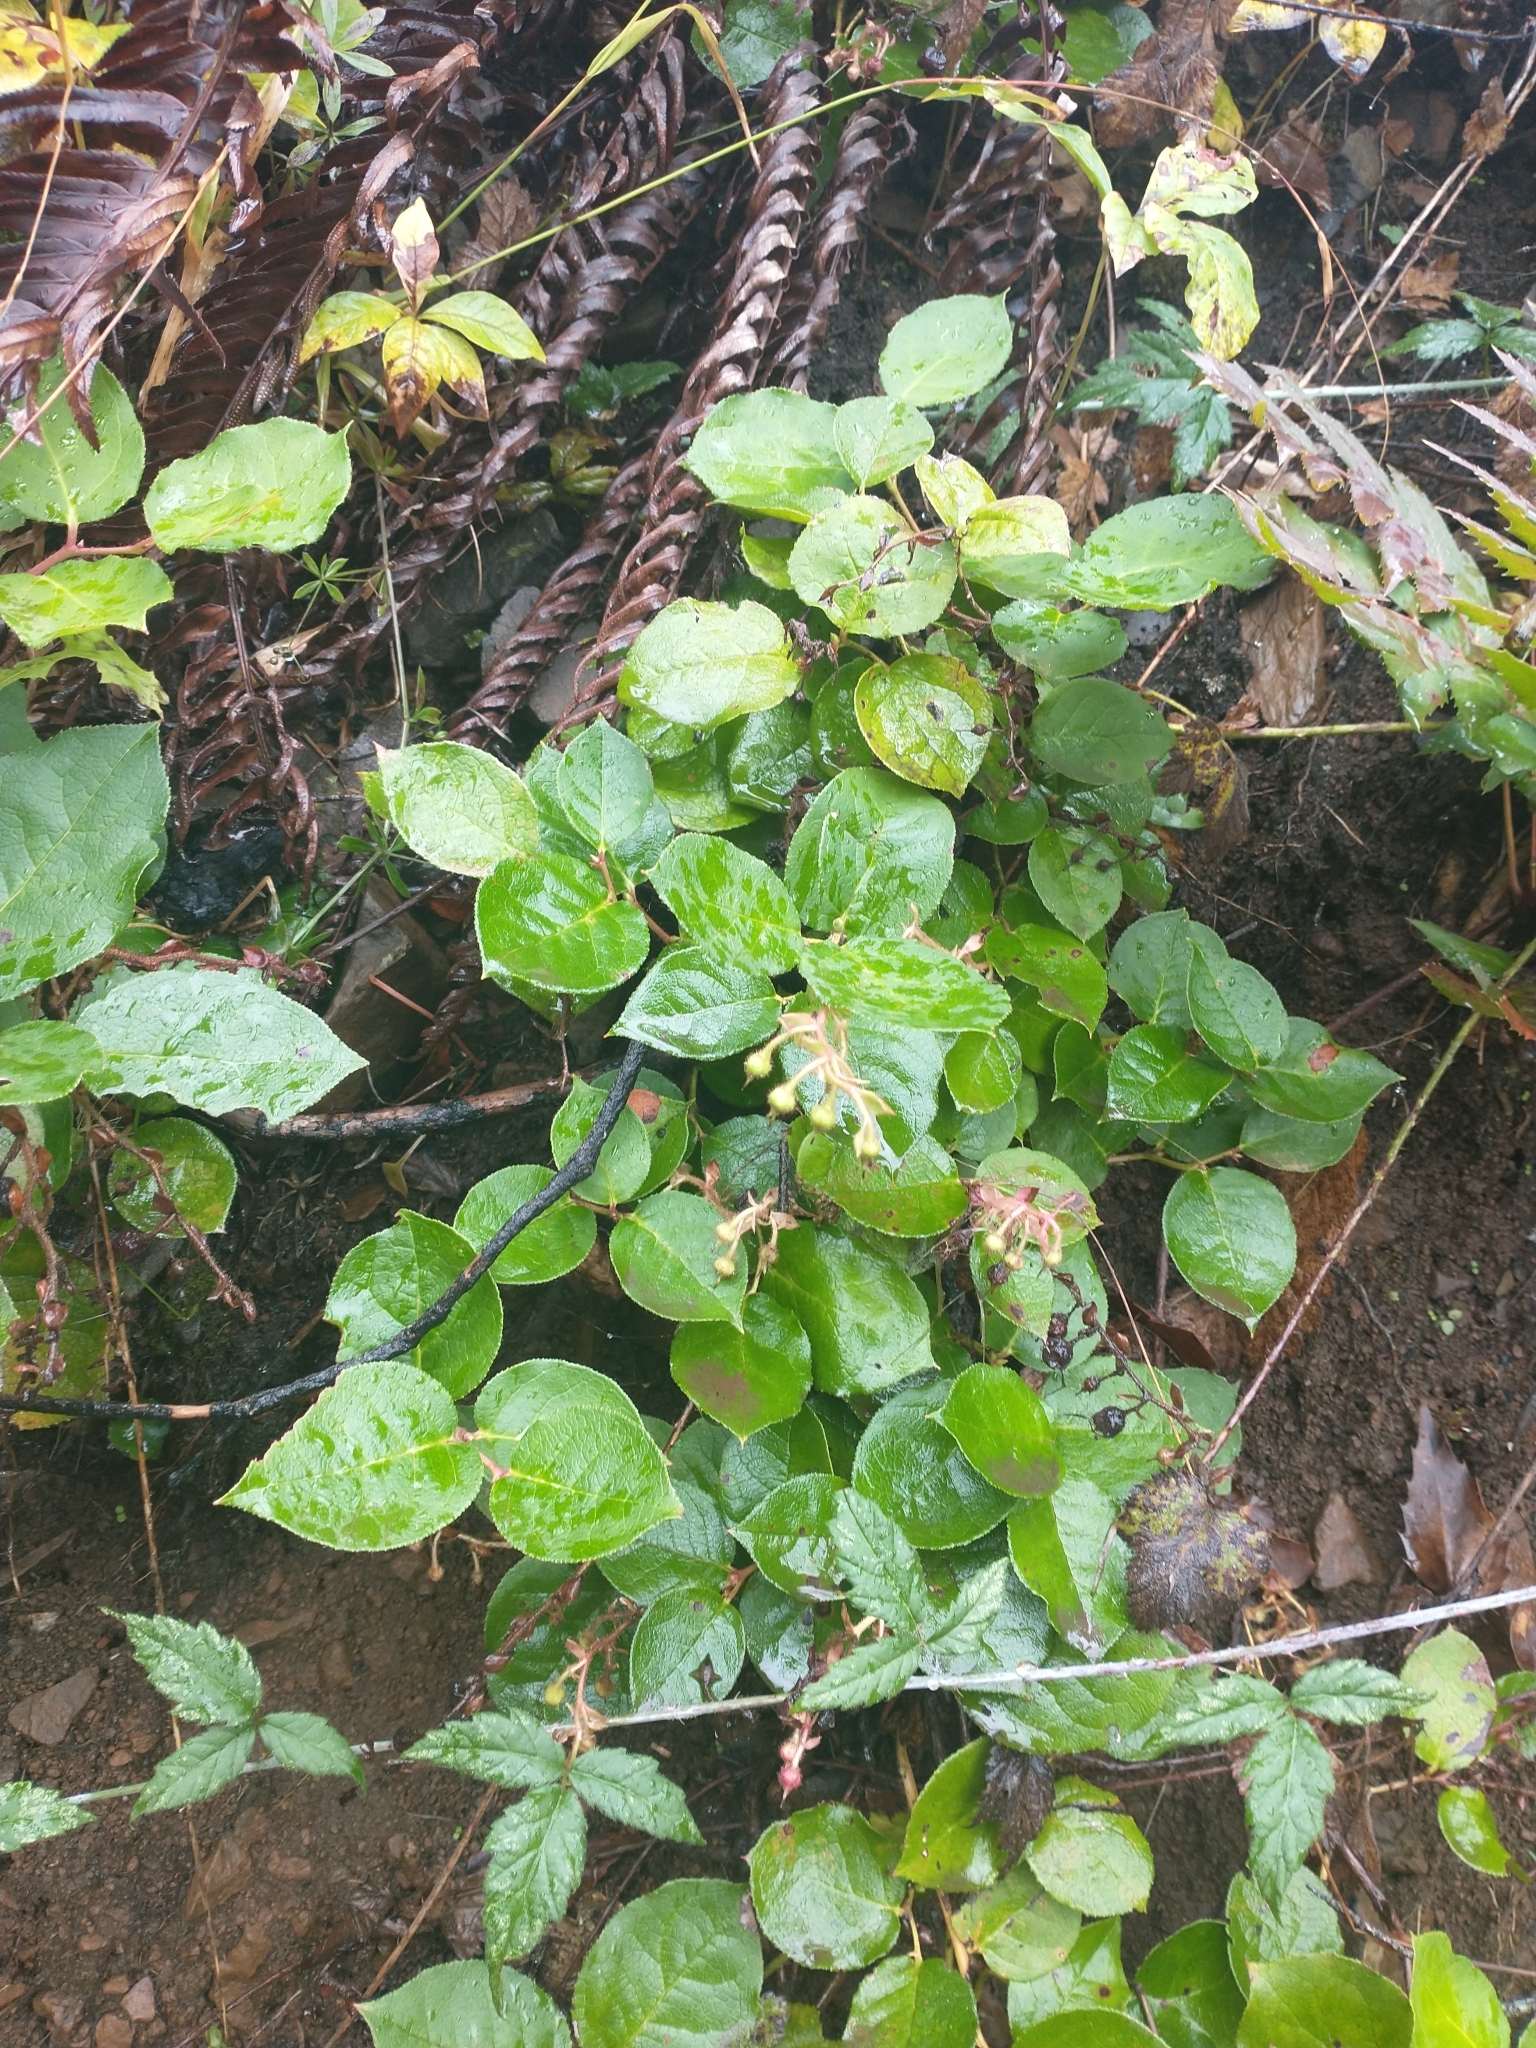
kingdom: Plantae
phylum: Tracheophyta
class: Magnoliopsida
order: Ericales
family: Ericaceae
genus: Gaultheria
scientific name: Gaultheria shallon
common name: Shallon
